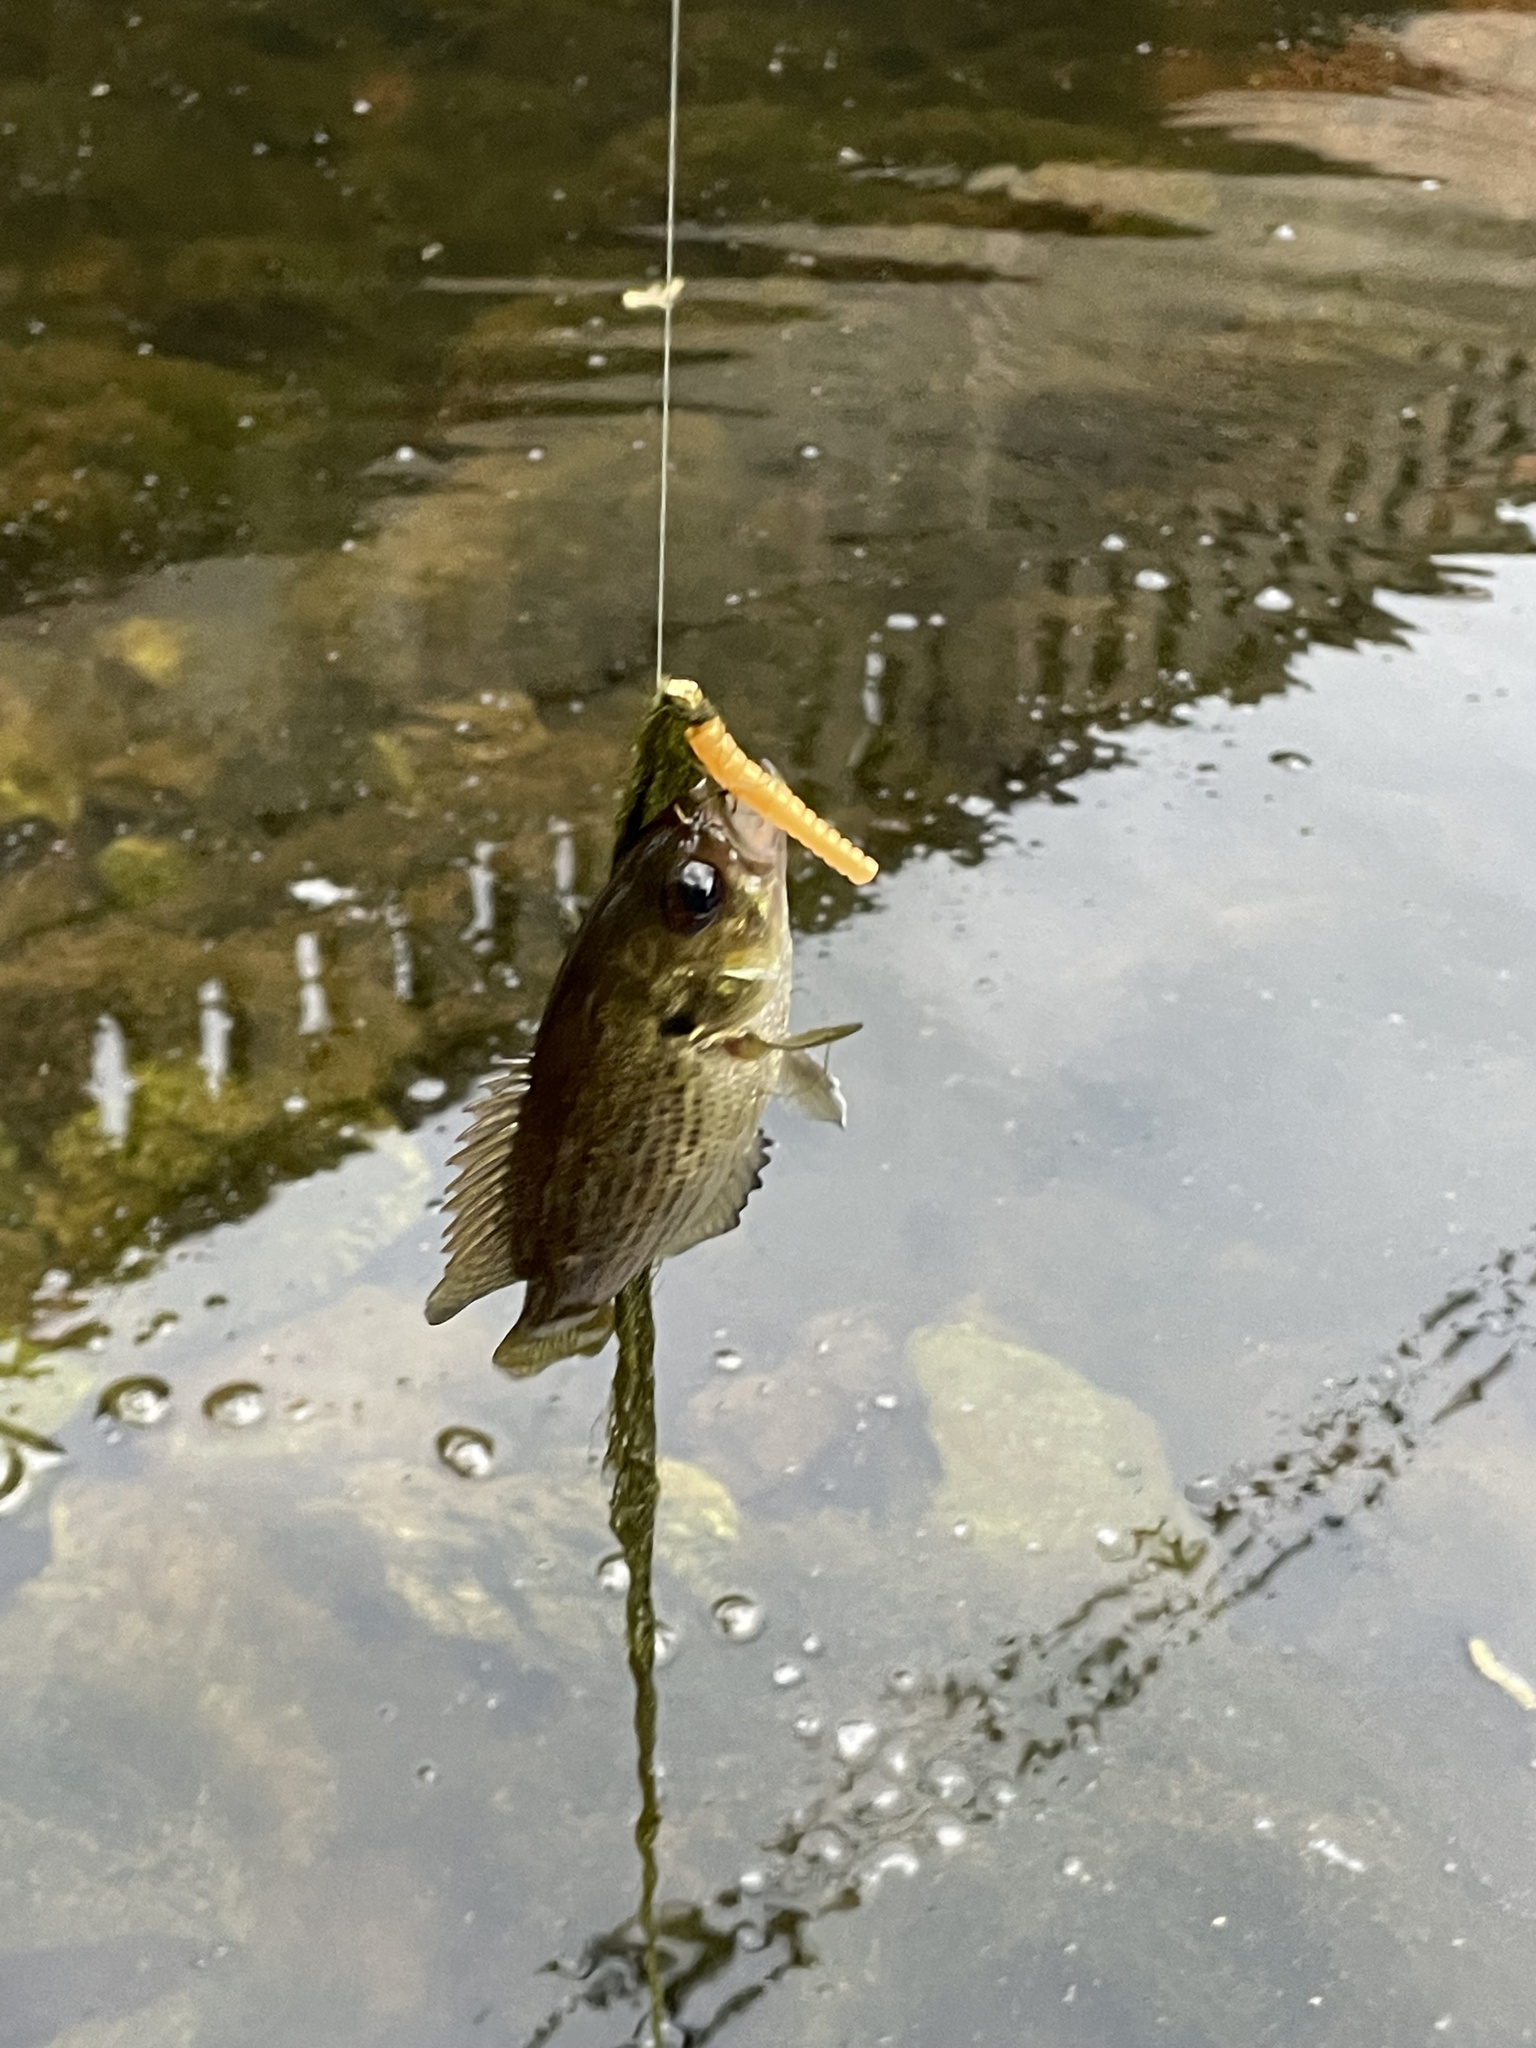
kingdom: Animalia
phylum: Chordata
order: Perciformes
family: Centrarchidae
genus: Ambloplites
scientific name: Ambloplites rupestris
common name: Rock bass
